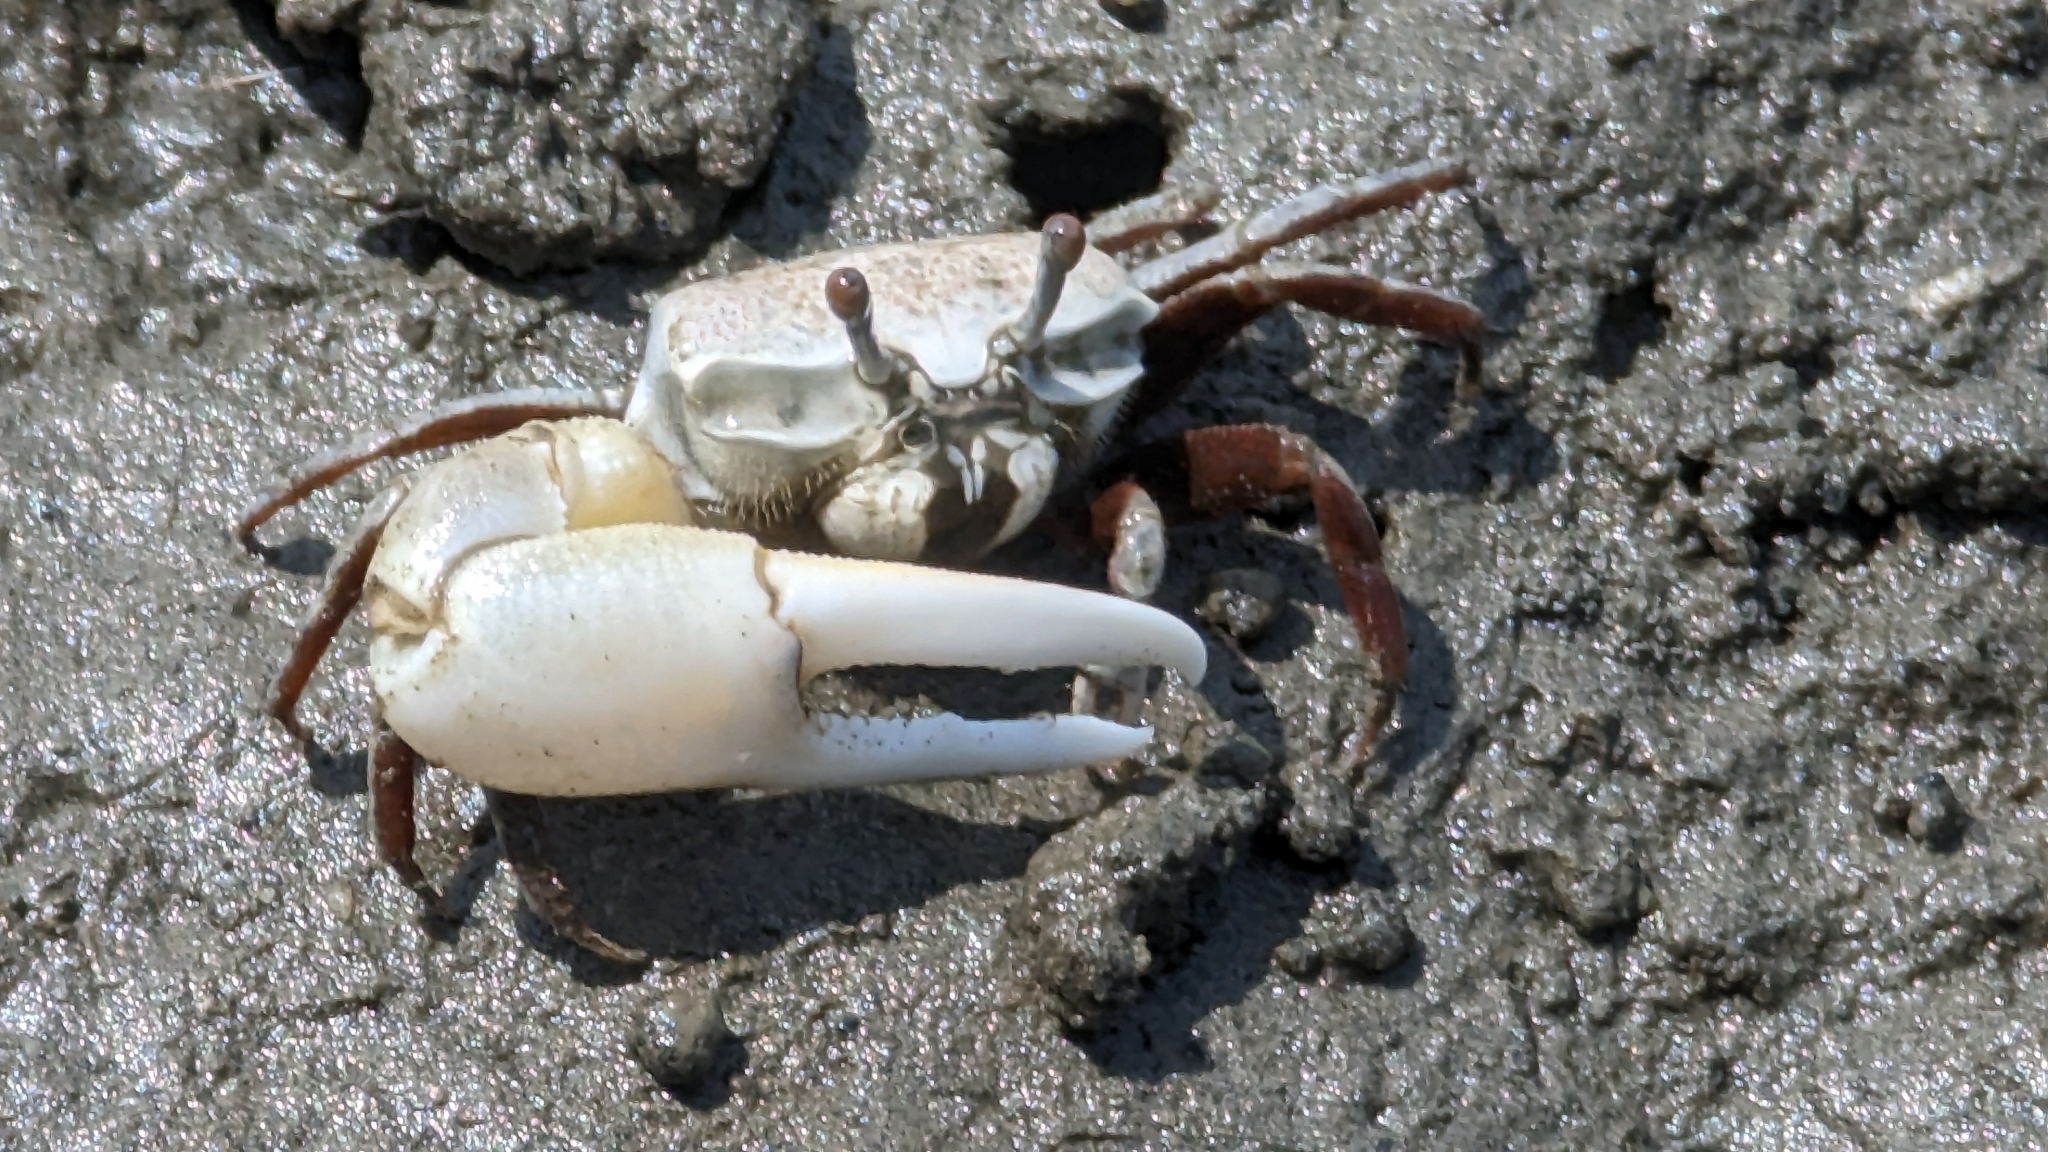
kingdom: Animalia
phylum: Arthropoda
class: Malacostraca
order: Decapoda
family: Ocypodidae
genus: Austruca
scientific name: Austruca lactea
